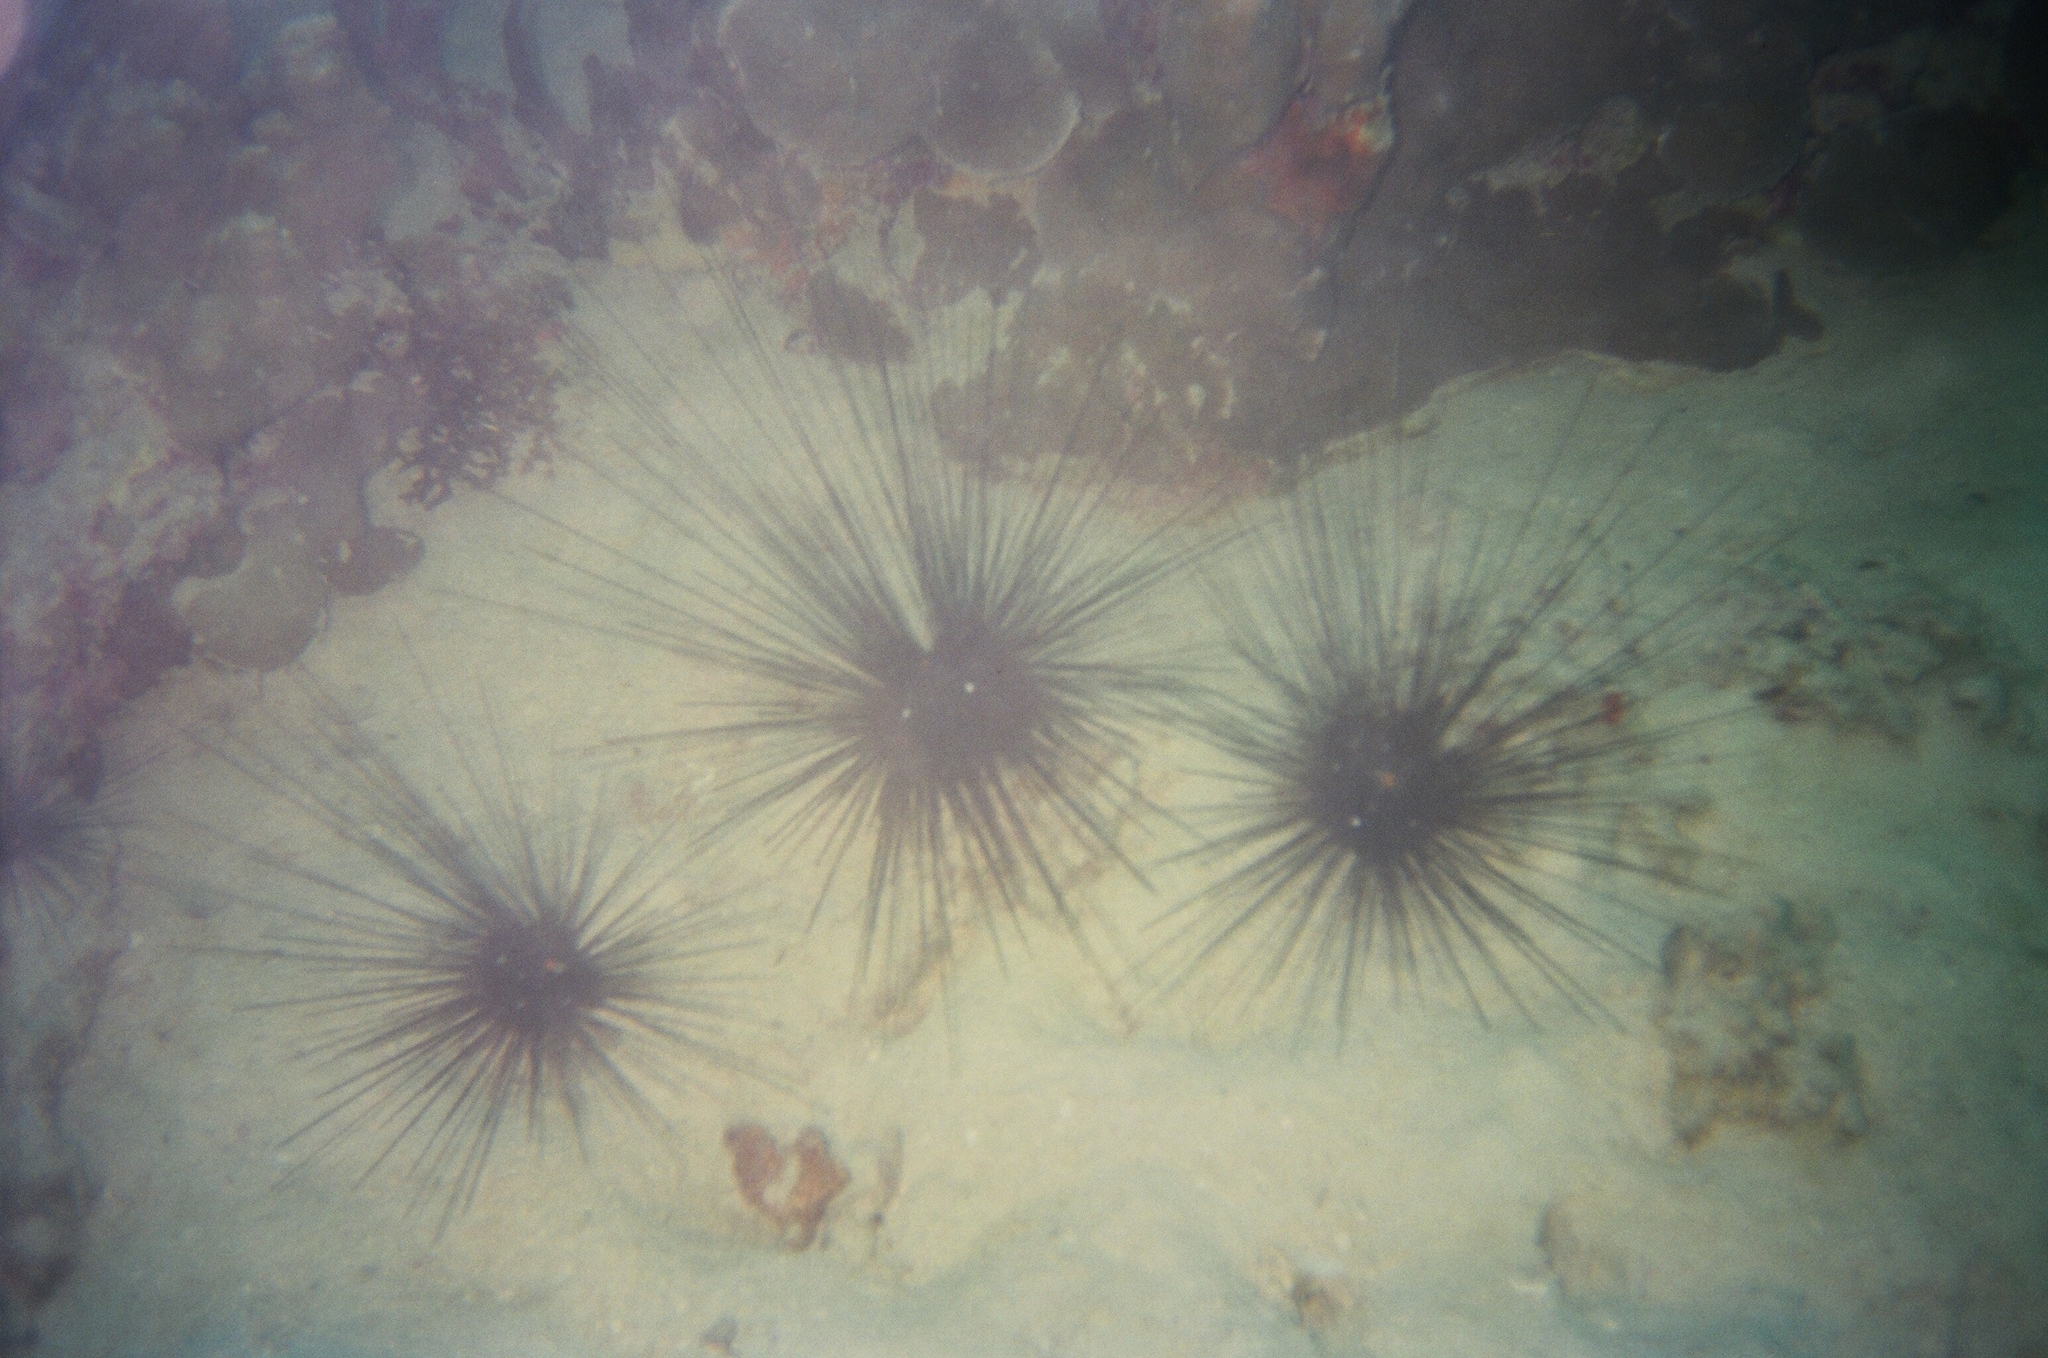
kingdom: Animalia
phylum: Echinodermata
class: Echinoidea
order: Diadematoida
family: Diadematidae
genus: Diadema
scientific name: Diadema setosum
